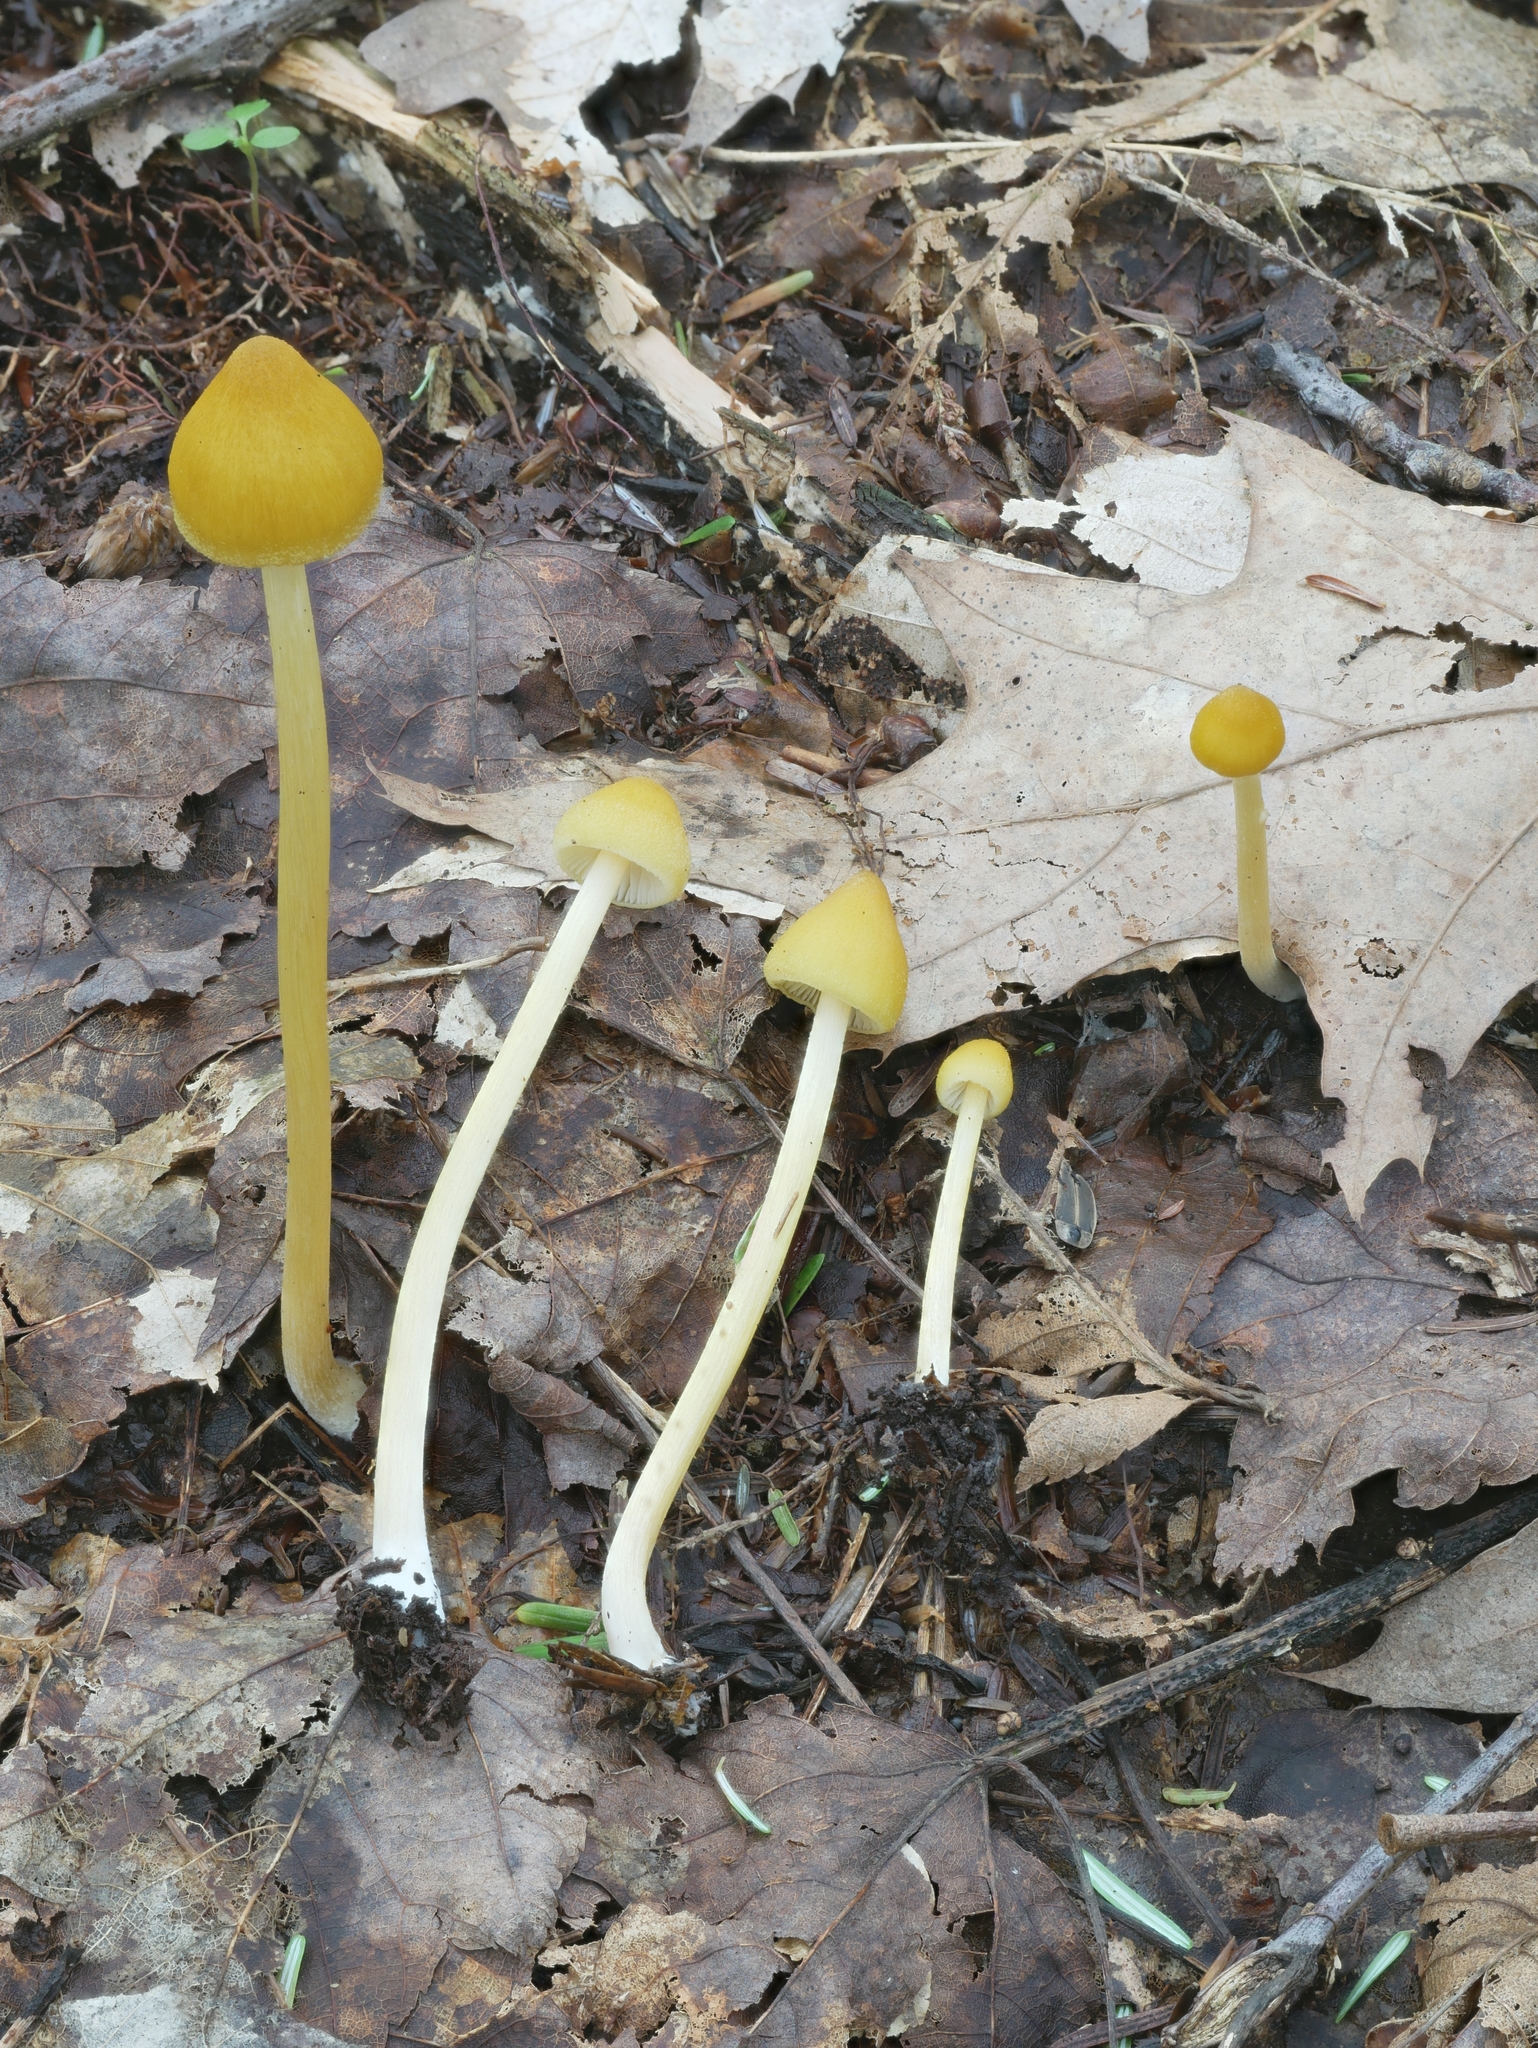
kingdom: Fungi
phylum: Basidiomycota
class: Agaricomycetes
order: Agaricales
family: Entolomataceae
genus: Entoloma
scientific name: Entoloma luteum
